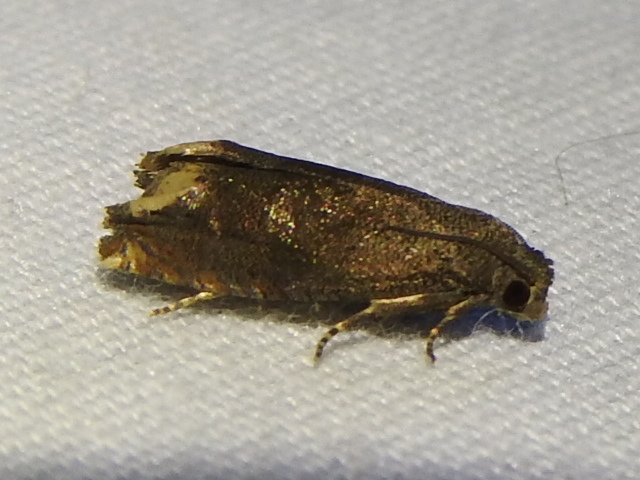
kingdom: Animalia
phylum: Arthropoda
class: Insecta
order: Lepidoptera
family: Tortricidae
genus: Epiblema
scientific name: Epiblema strenuana
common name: Ragweed borer moth
